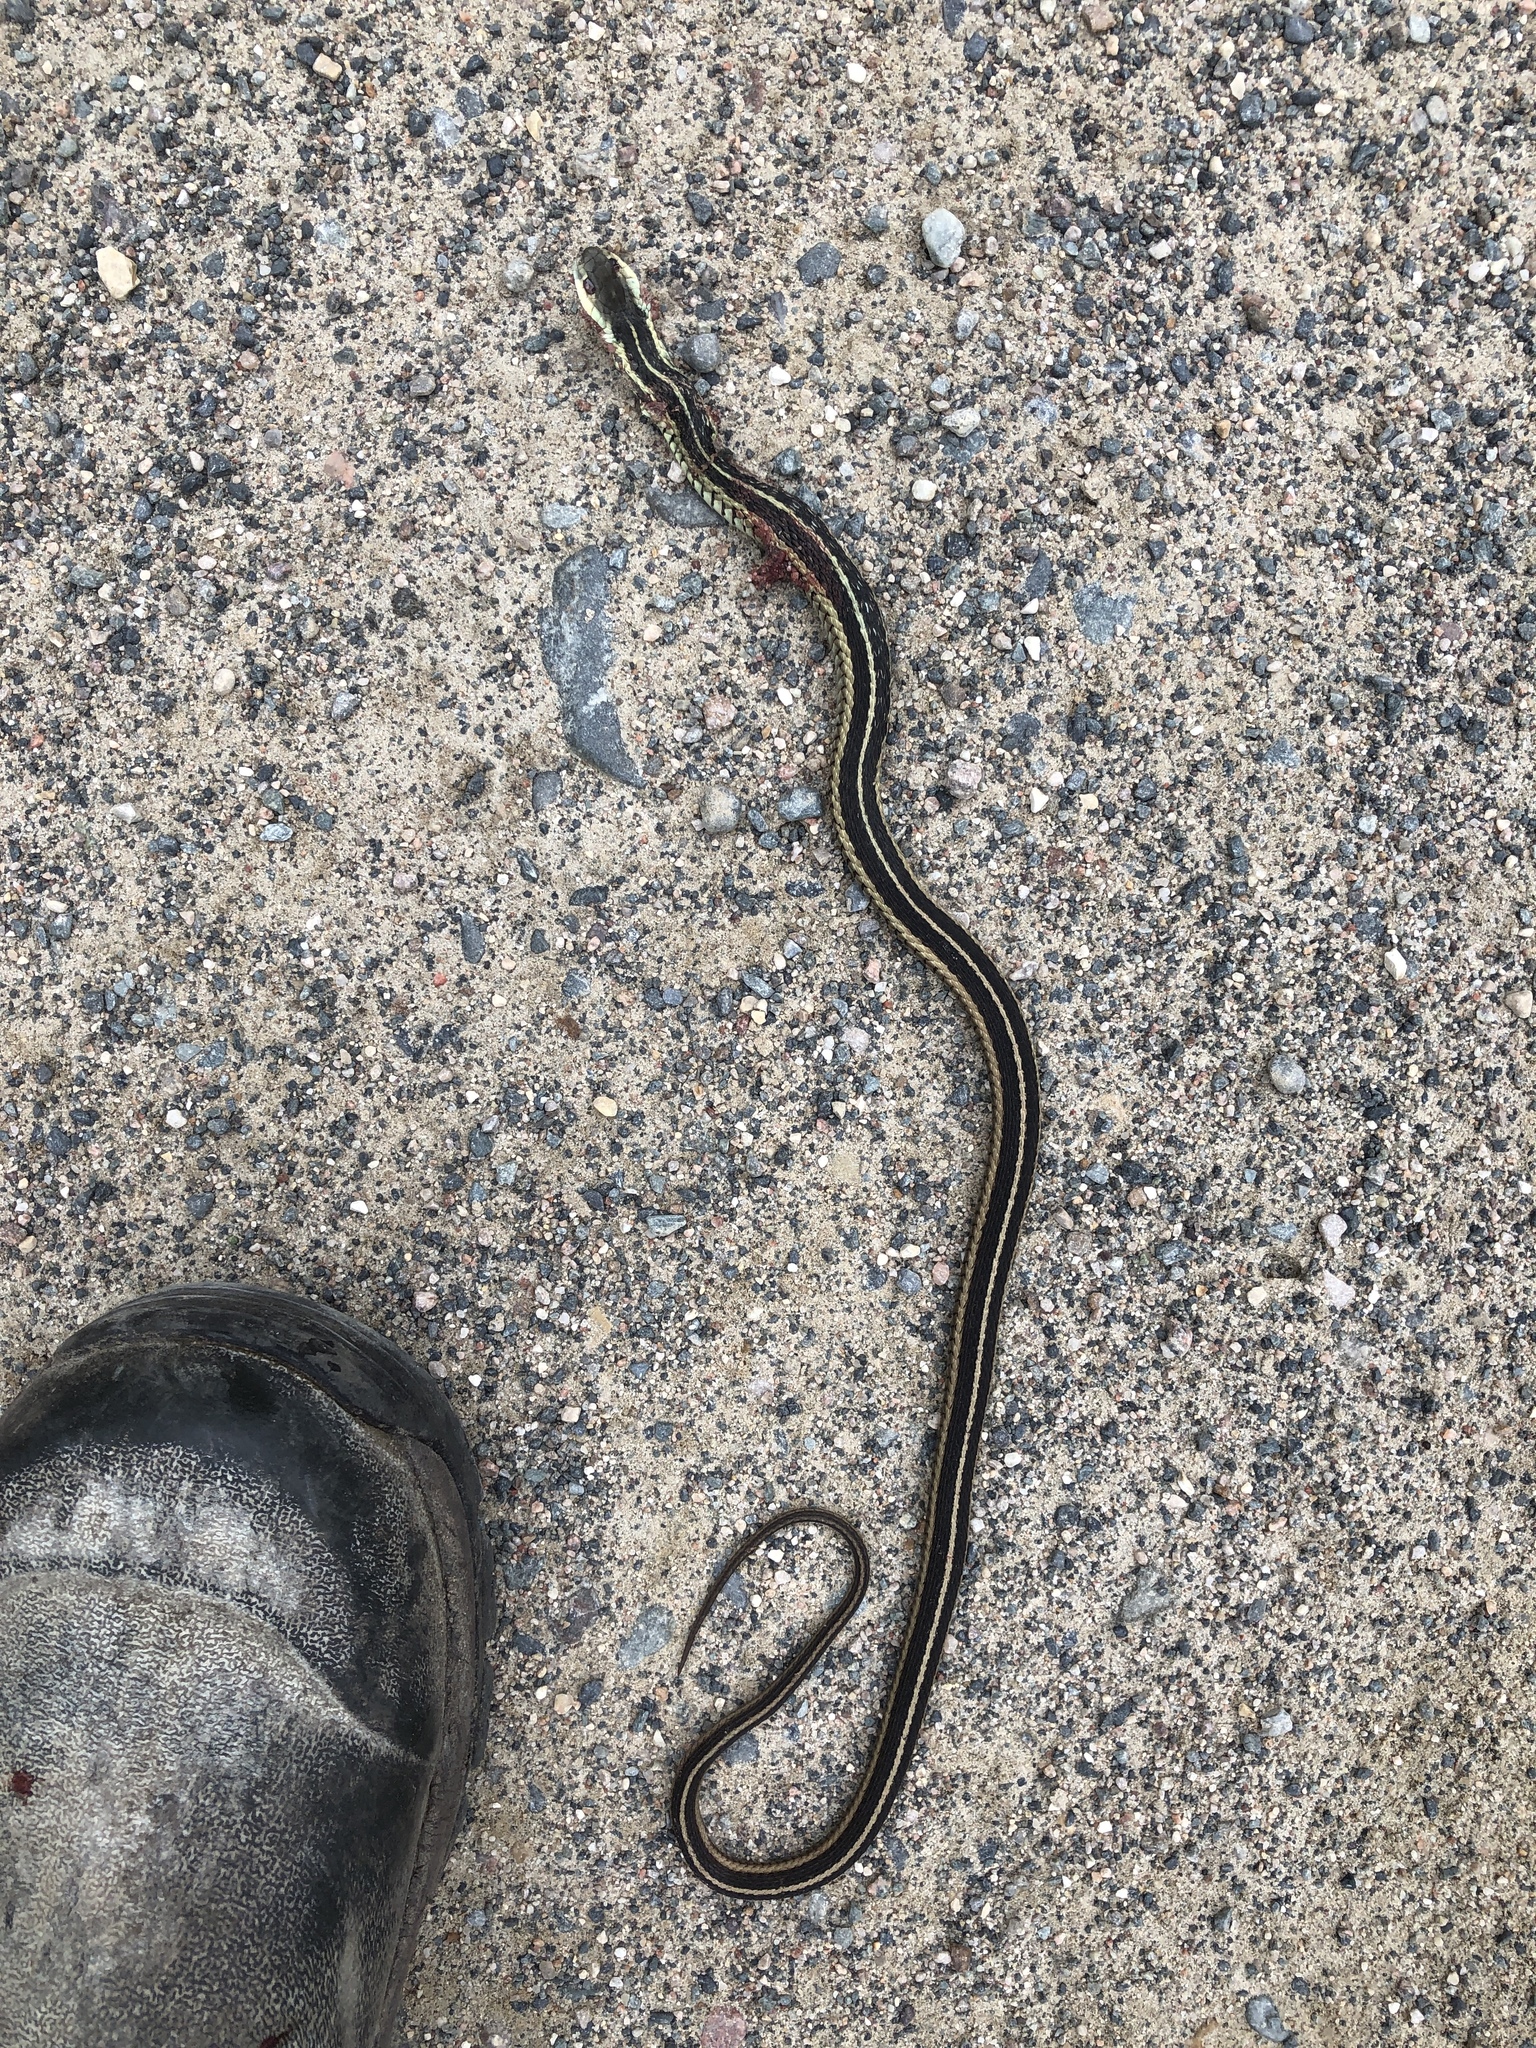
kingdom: Animalia
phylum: Chordata
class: Squamata
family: Colubridae
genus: Thamnophis
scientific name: Thamnophis sirtalis
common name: Common garter snake
